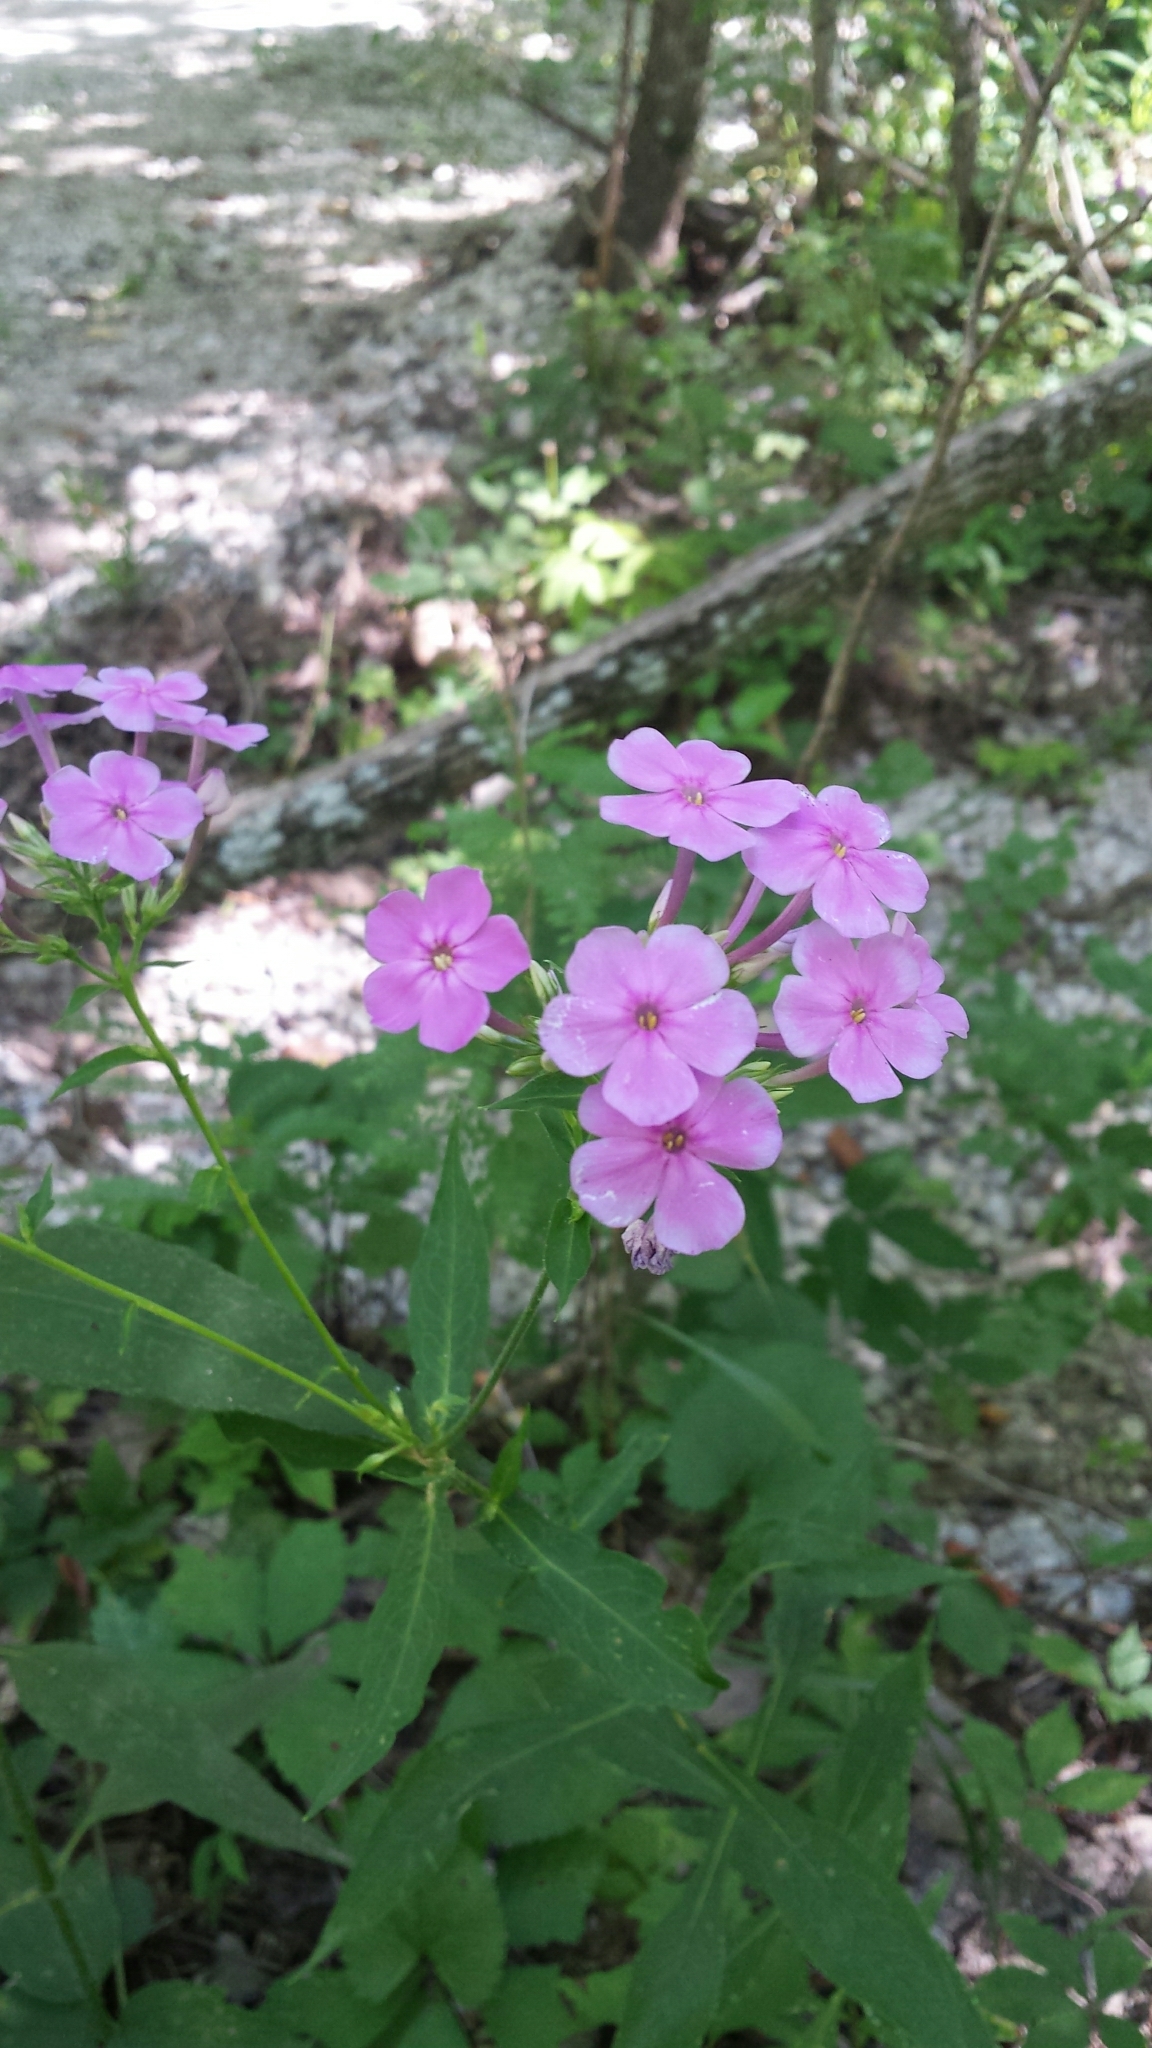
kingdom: Plantae
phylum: Tracheophyta
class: Magnoliopsida
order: Ericales
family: Polemoniaceae
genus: Phlox
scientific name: Phlox paniculata
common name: Fall phlox
